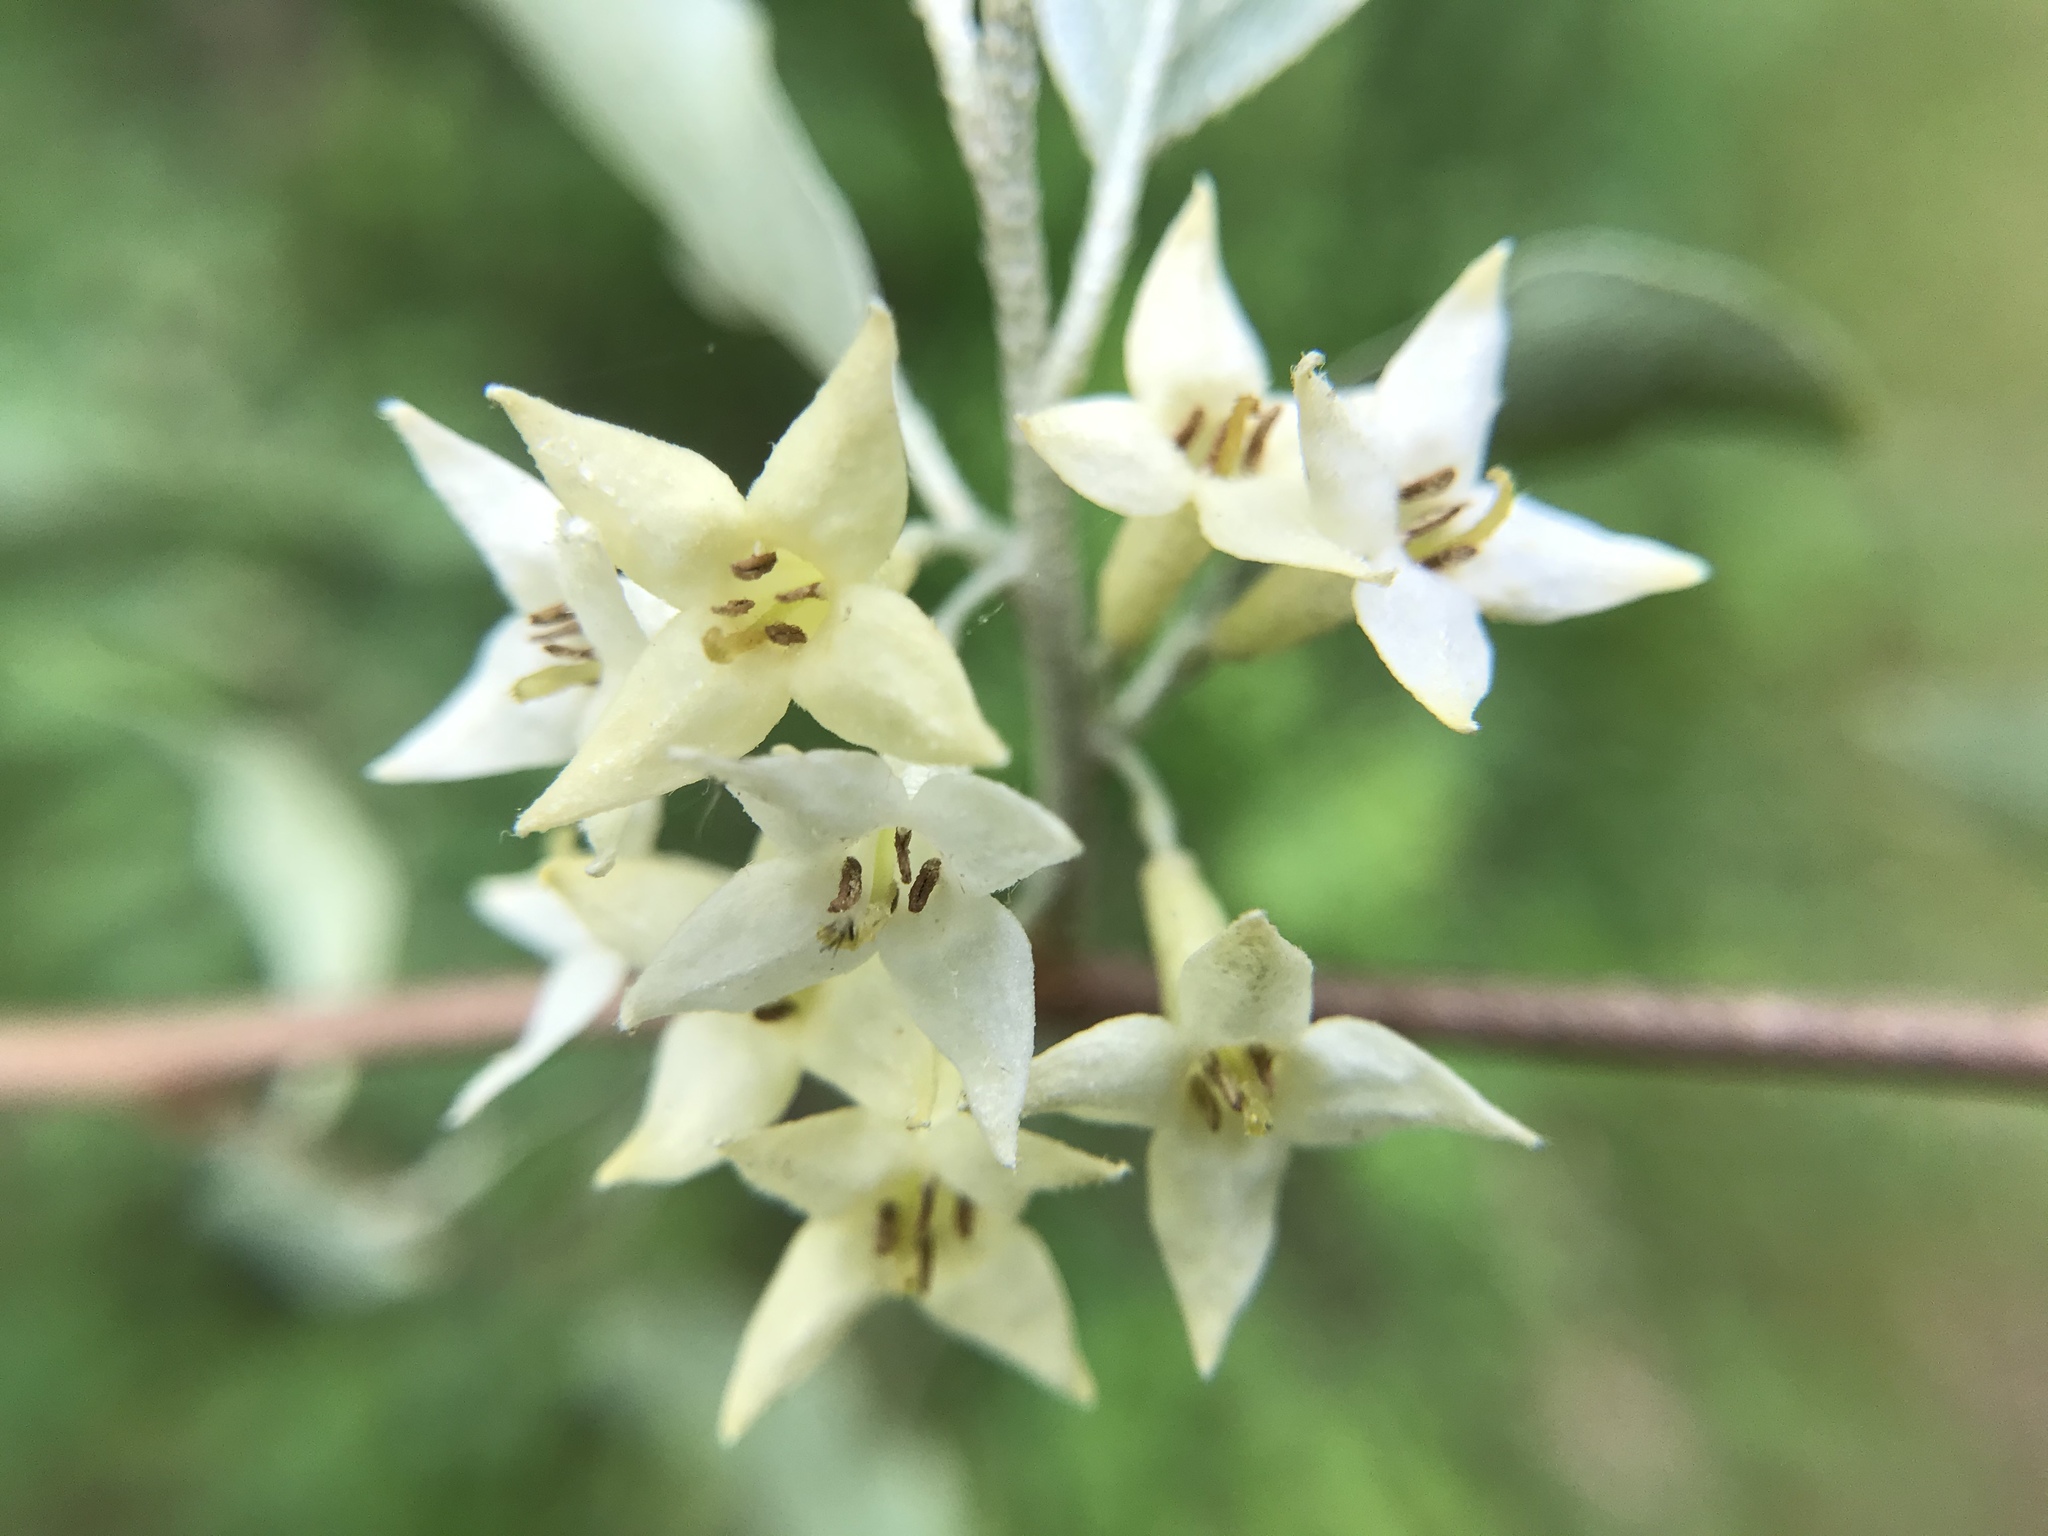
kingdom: Plantae
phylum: Tracheophyta
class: Magnoliopsida
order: Rosales
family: Elaeagnaceae
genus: Elaeagnus
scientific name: Elaeagnus umbellata
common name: Autumn olive
